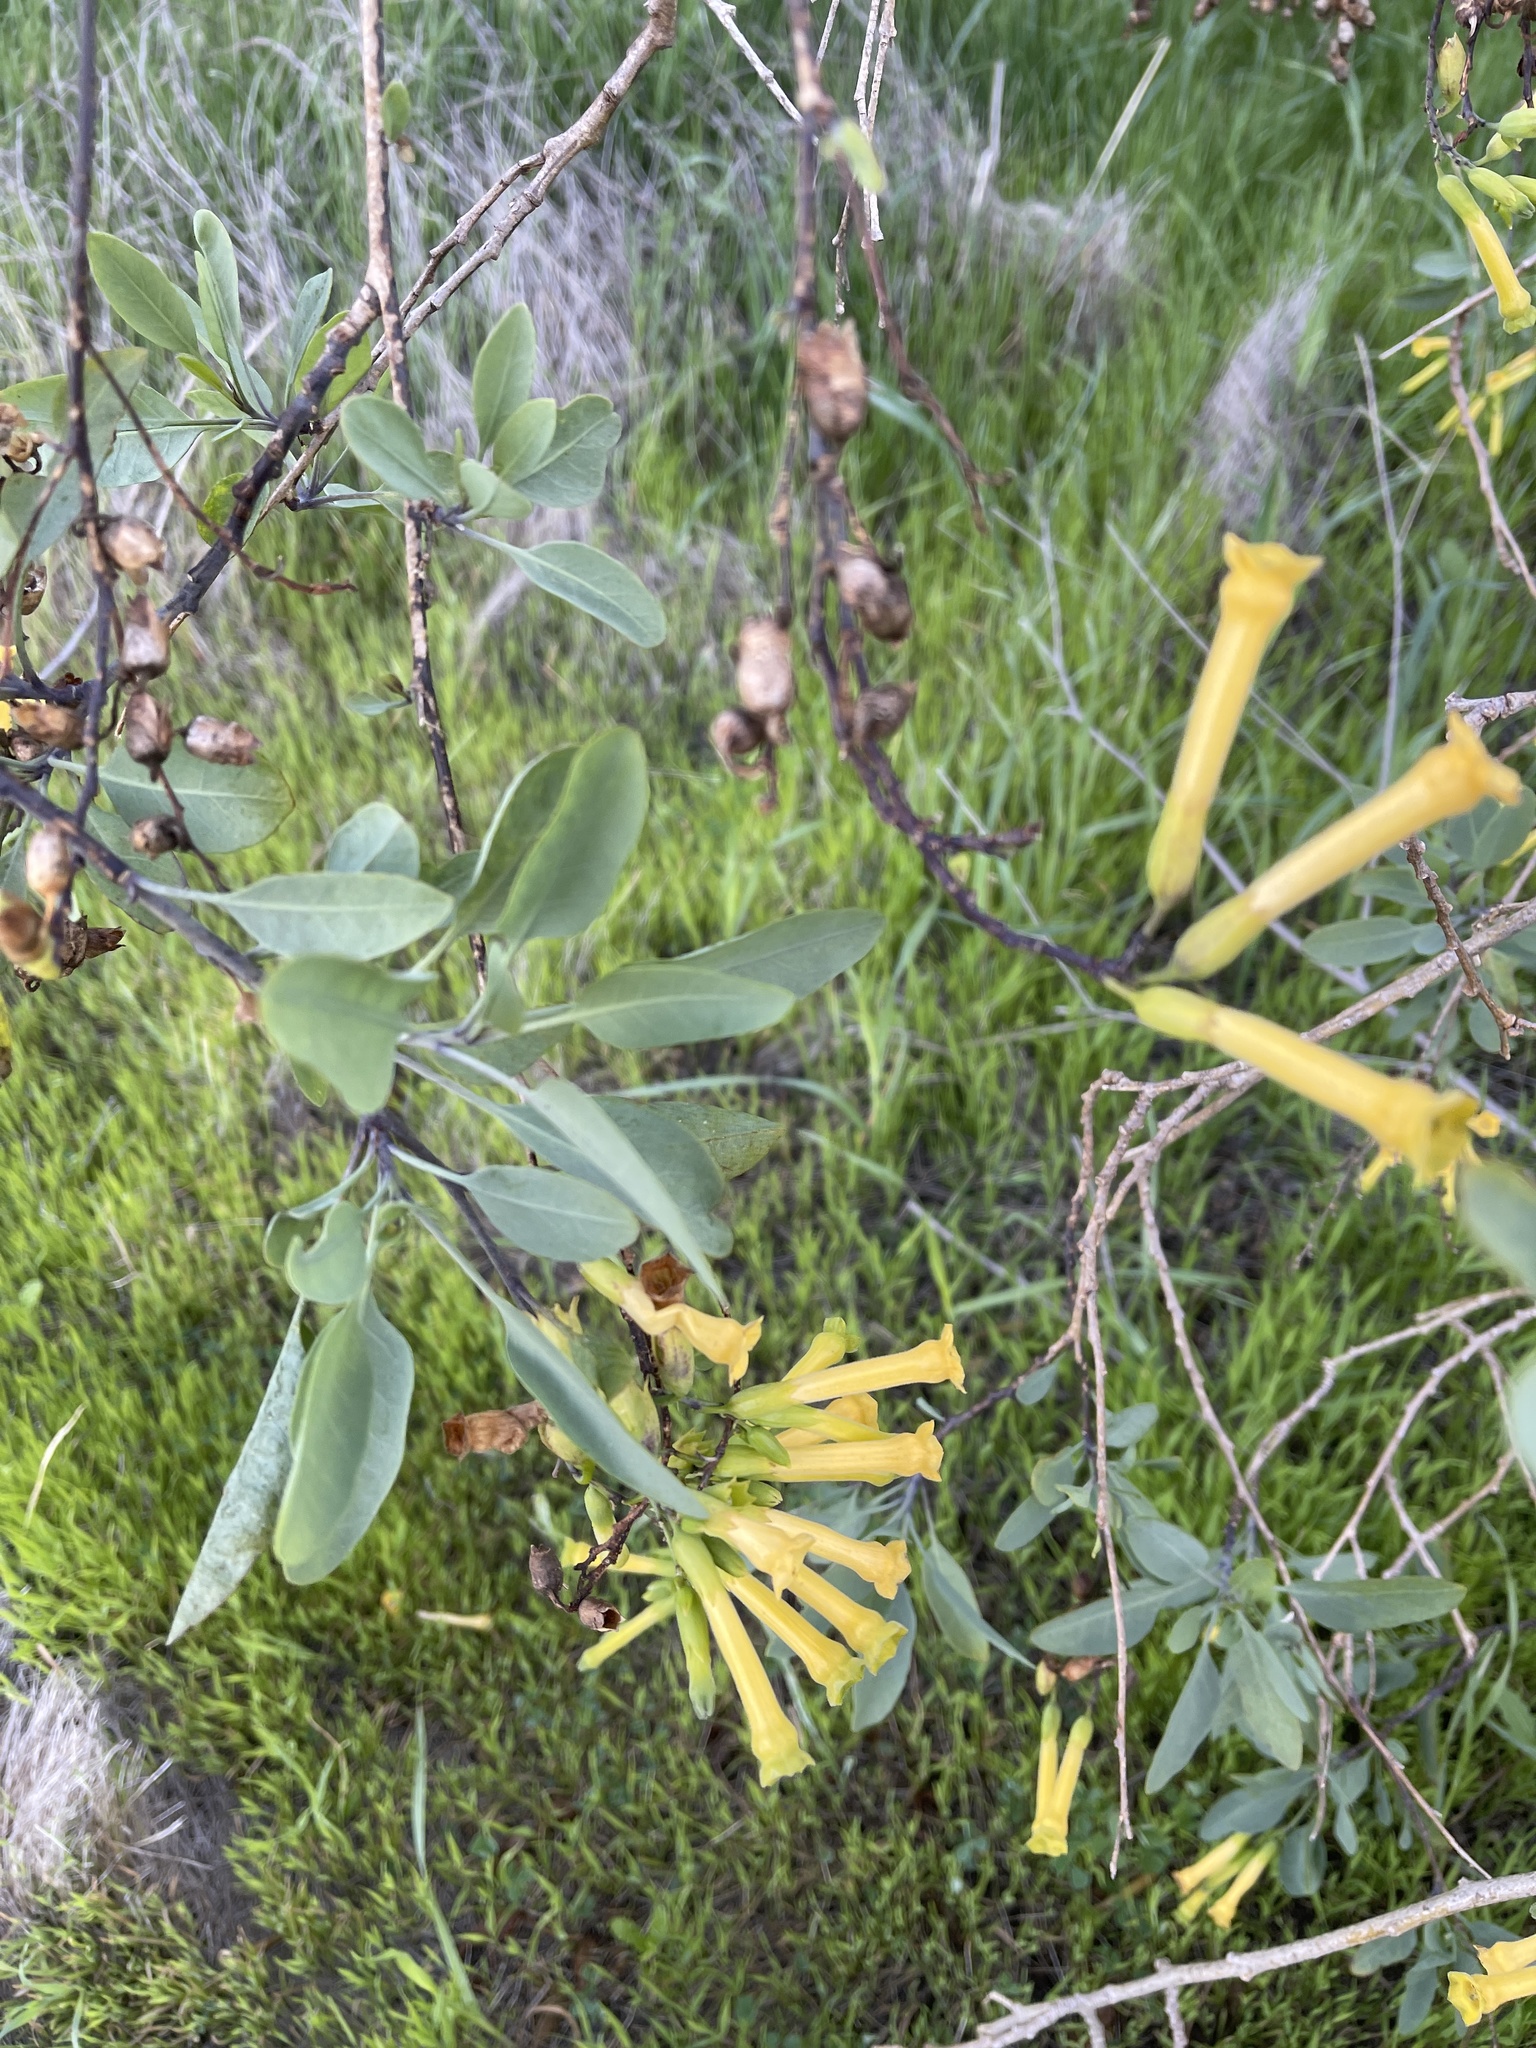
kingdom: Plantae
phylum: Tracheophyta
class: Magnoliopsida
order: Solanales
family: Solanaceae
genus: Nicotiana
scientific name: Nicotiana glauca
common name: Tree tobacco
